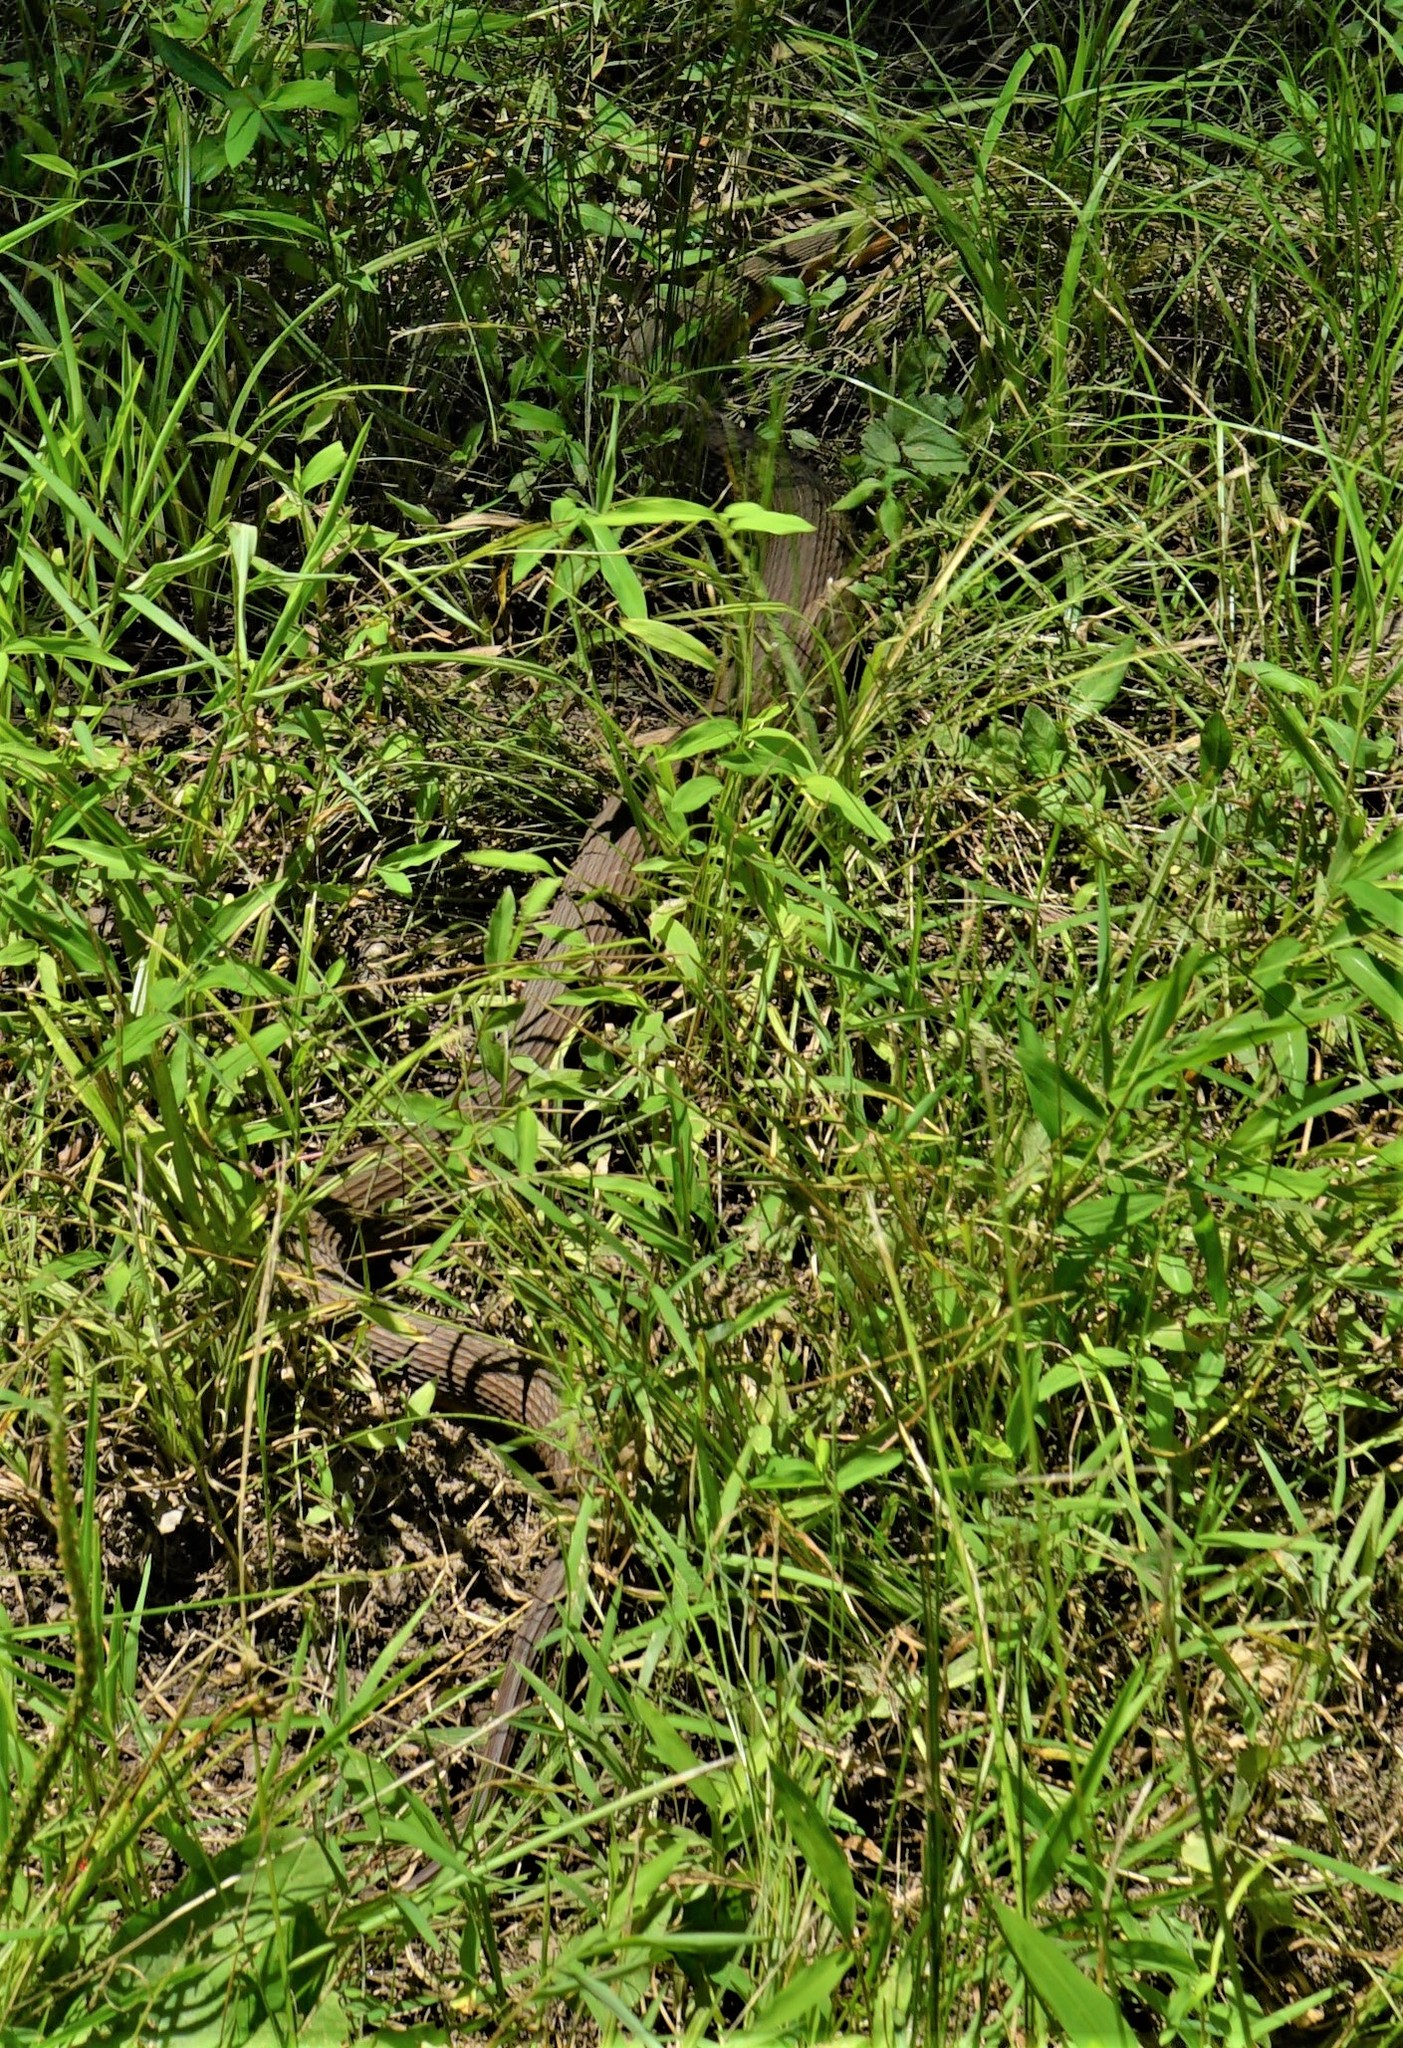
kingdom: Animalia
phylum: Chordata
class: Squamata
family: Colubridae
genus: Nerodia
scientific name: Nerodia erythrogaster
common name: Plainbelly water snake
